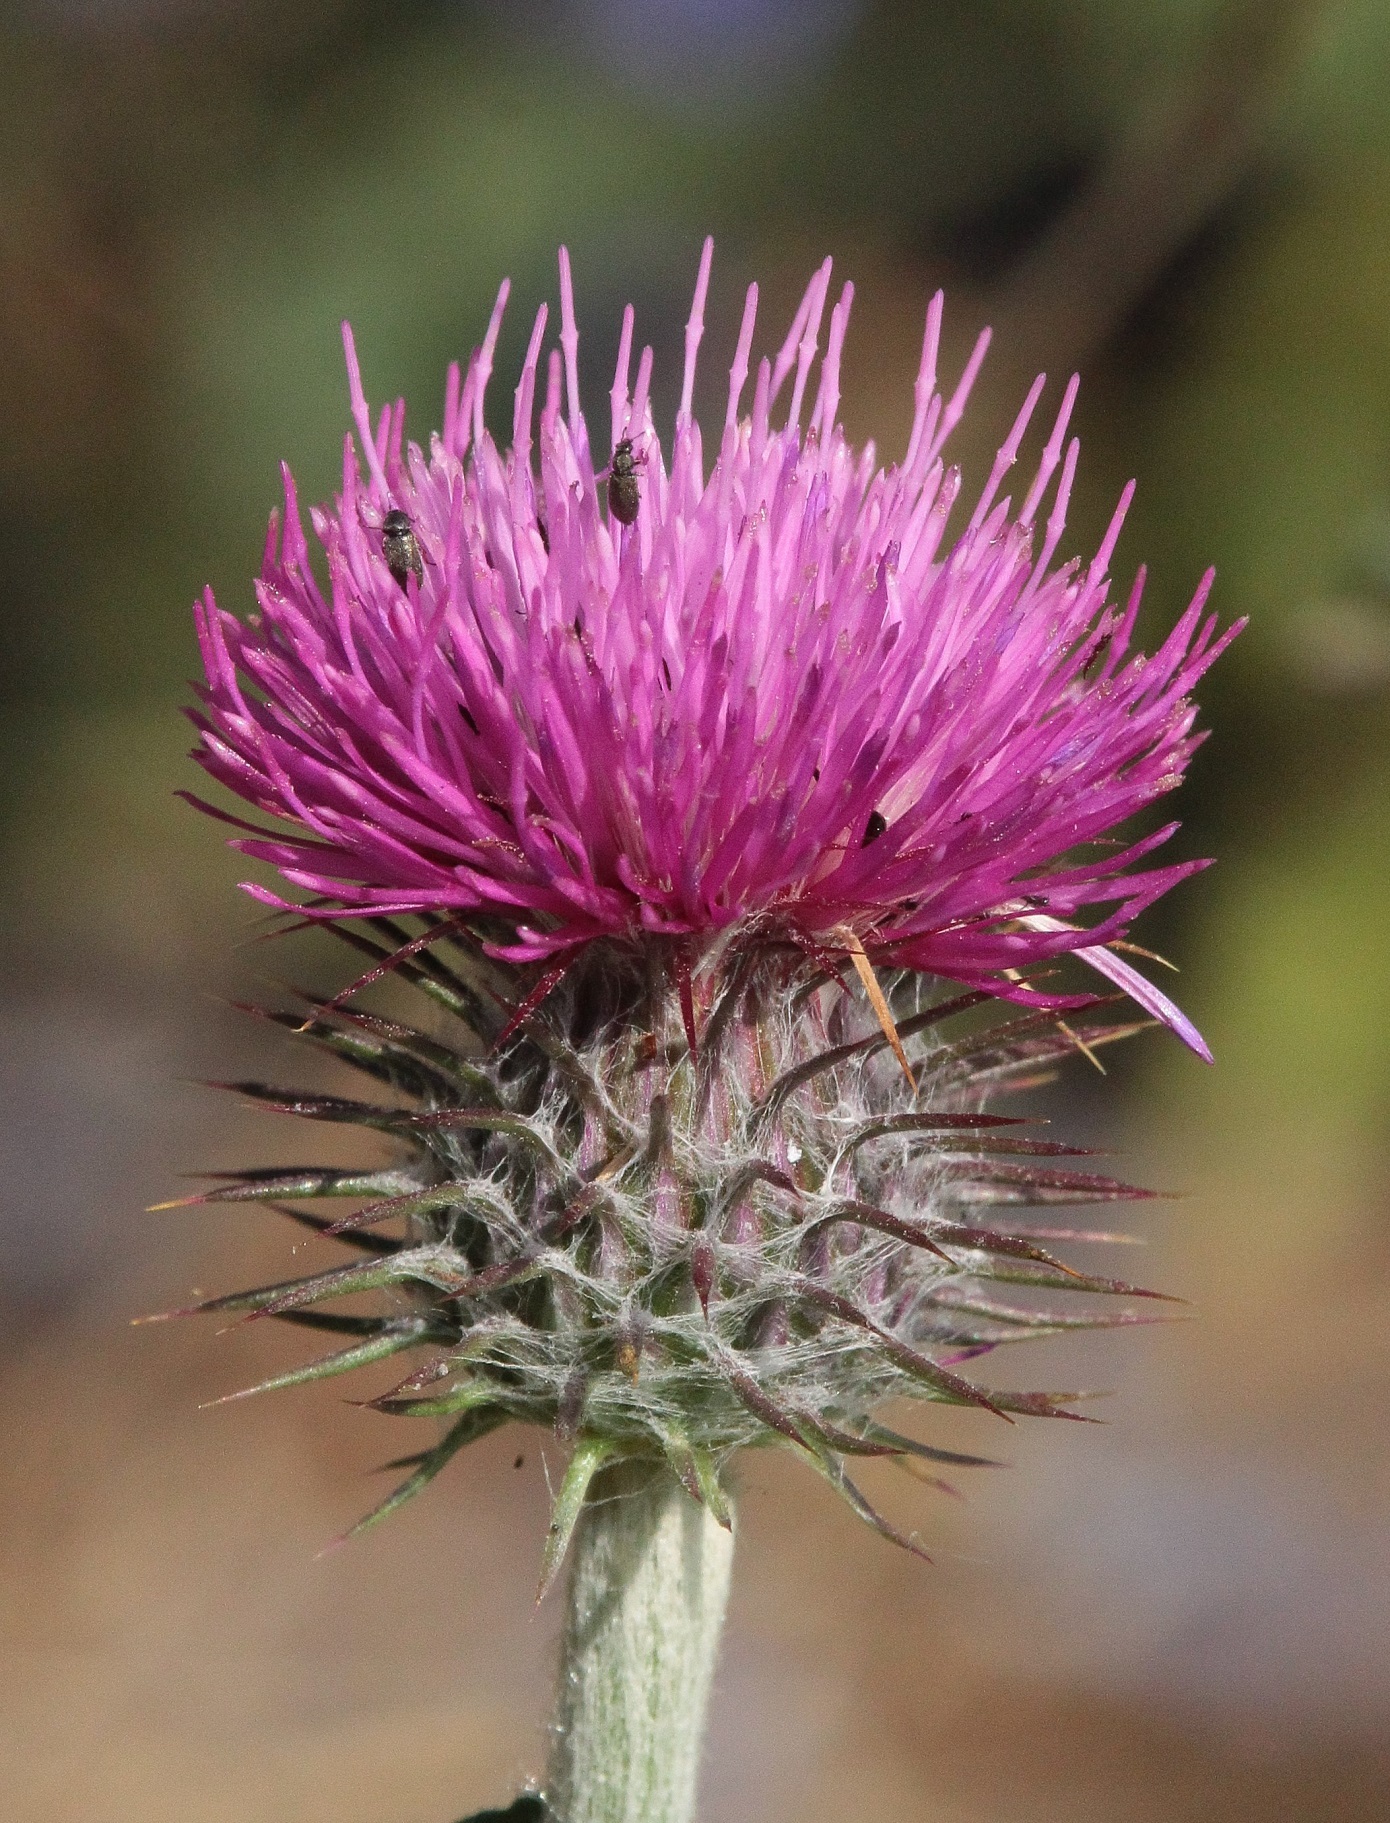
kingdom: Plantae
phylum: Tracheophyta
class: Magnoliopsida
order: Asterales
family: Asteraceae
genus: Carduus
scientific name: Carduus uncinatus
